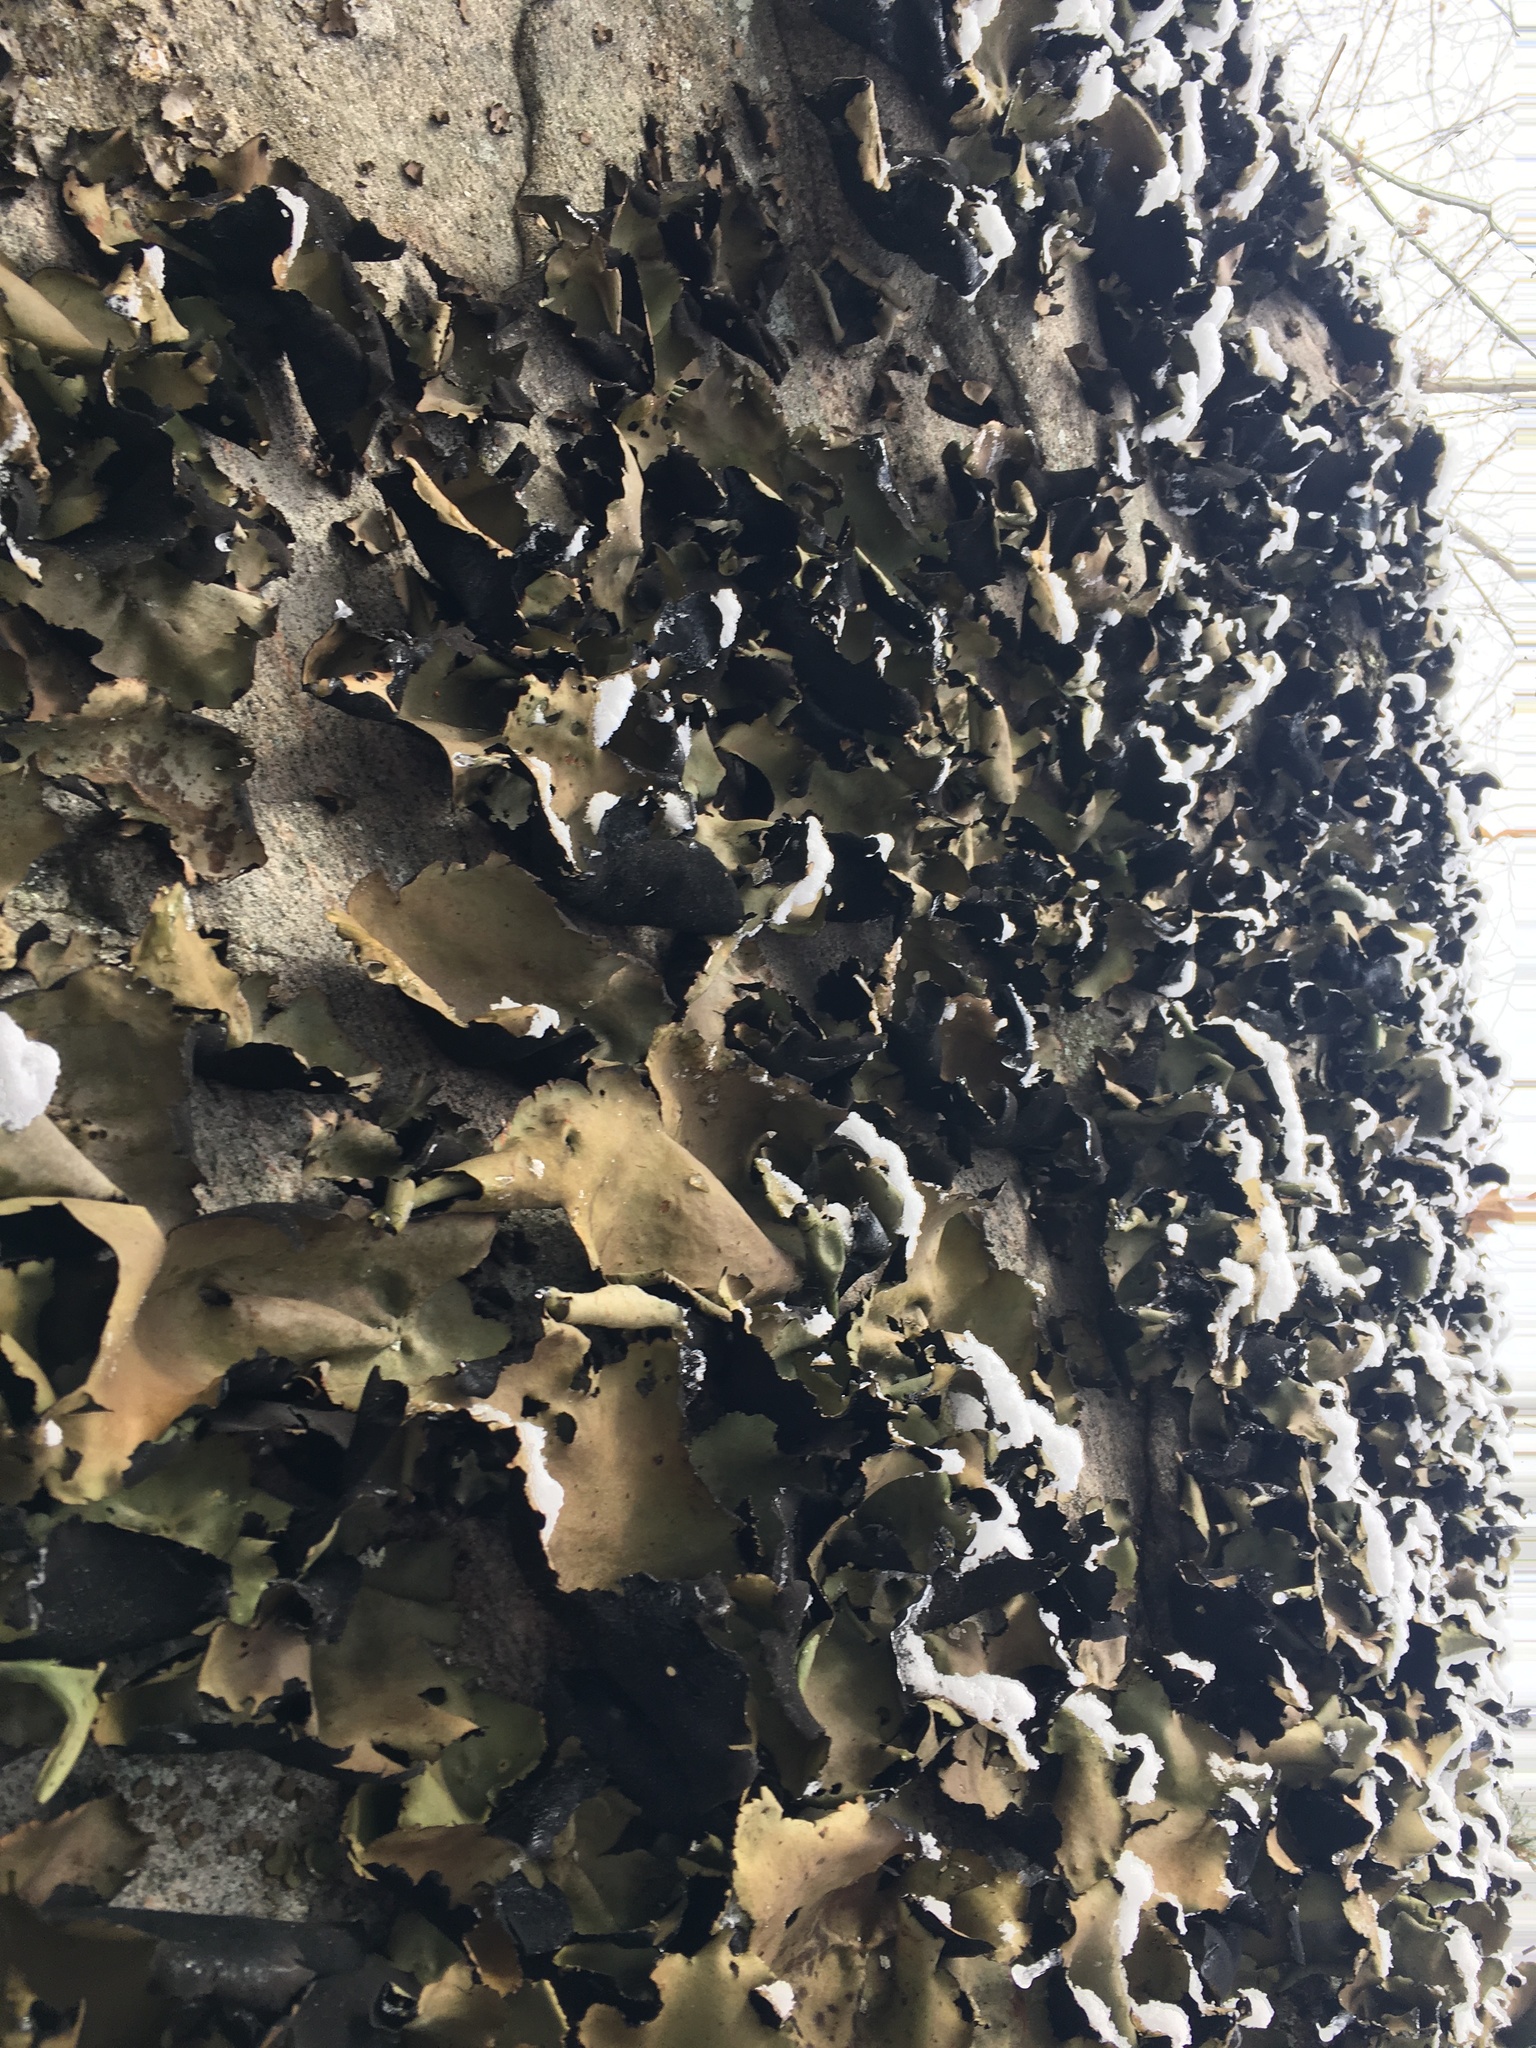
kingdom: Fungi
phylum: Ascomycota
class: Lecanoromycetes
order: Umbilicariales
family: Umbilicariaceae
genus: Umbilicaria
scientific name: Umbilicaria mammulata
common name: Smooth rock tripe
